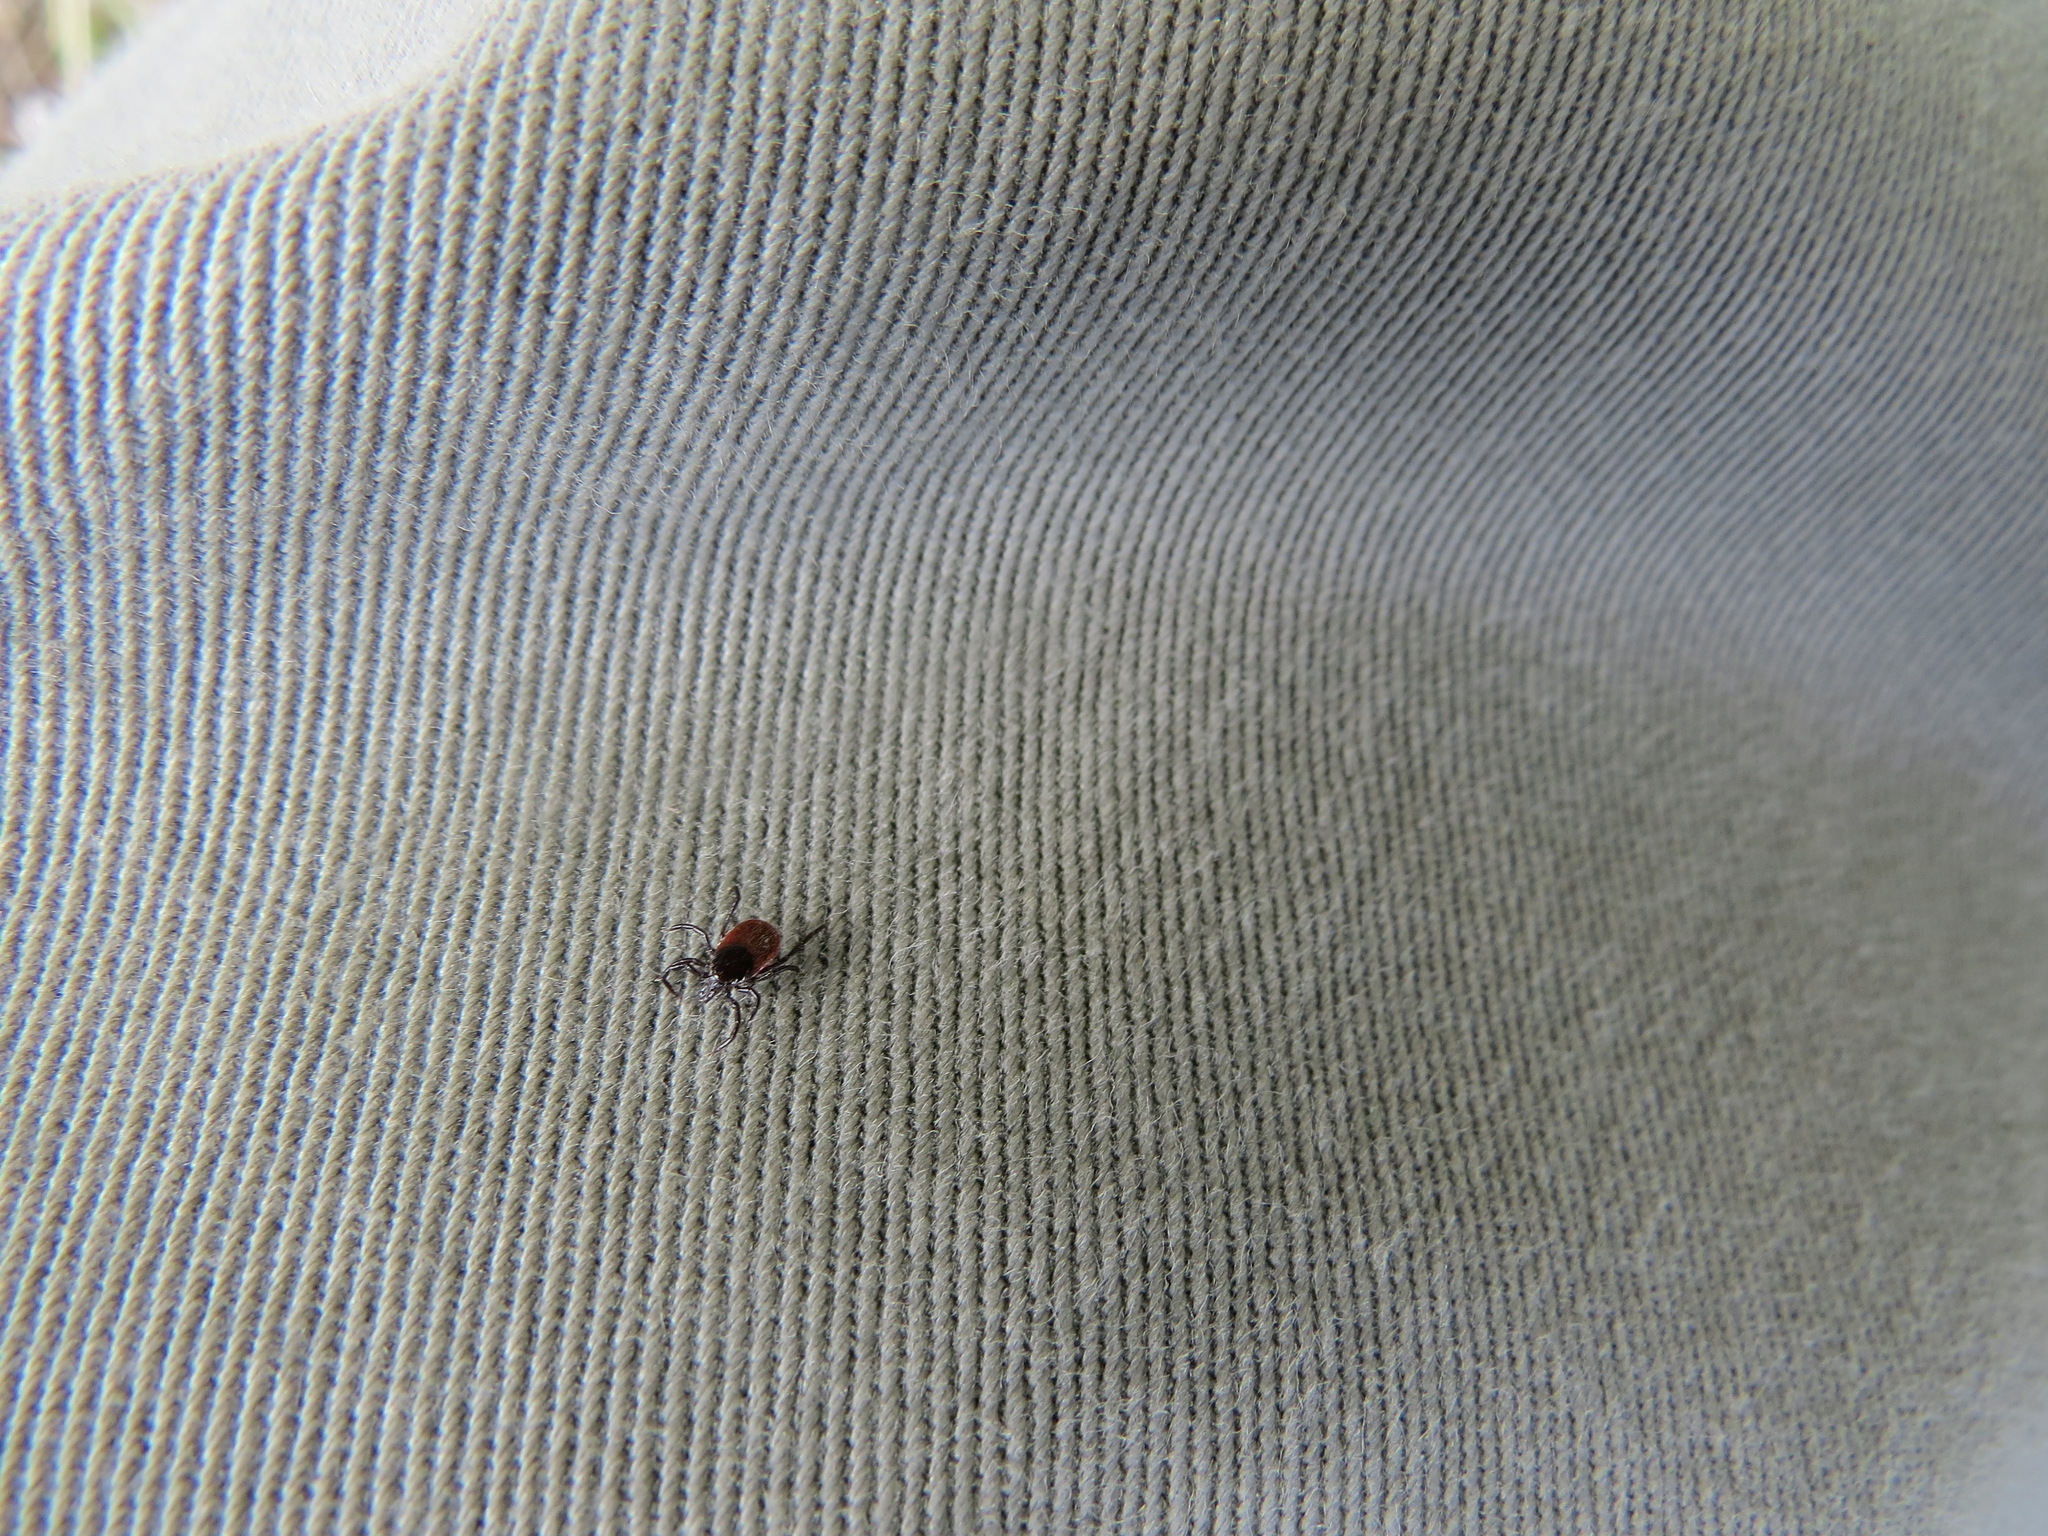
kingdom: Animalia
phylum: Arthropoda
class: Arachnida
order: Ixodida
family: Ixodidae
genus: Ixodes
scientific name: Ixodes pacificus
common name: California black-legged tick
